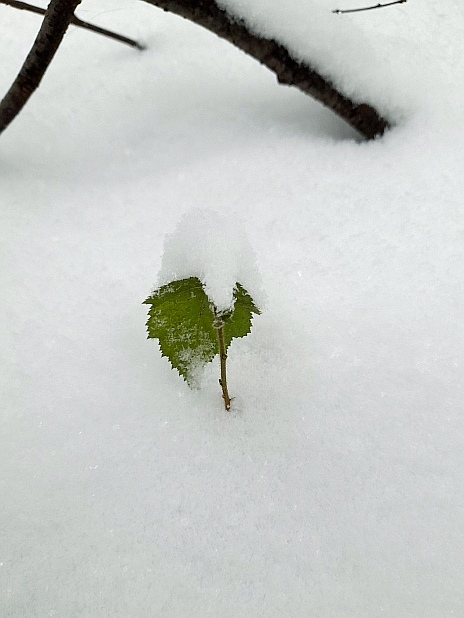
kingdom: Plantae
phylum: Tracheophyta
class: Magnoliopsida
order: Fagales
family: Betulaceae
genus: Betula
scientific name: Betula pendula
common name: Silver birch
